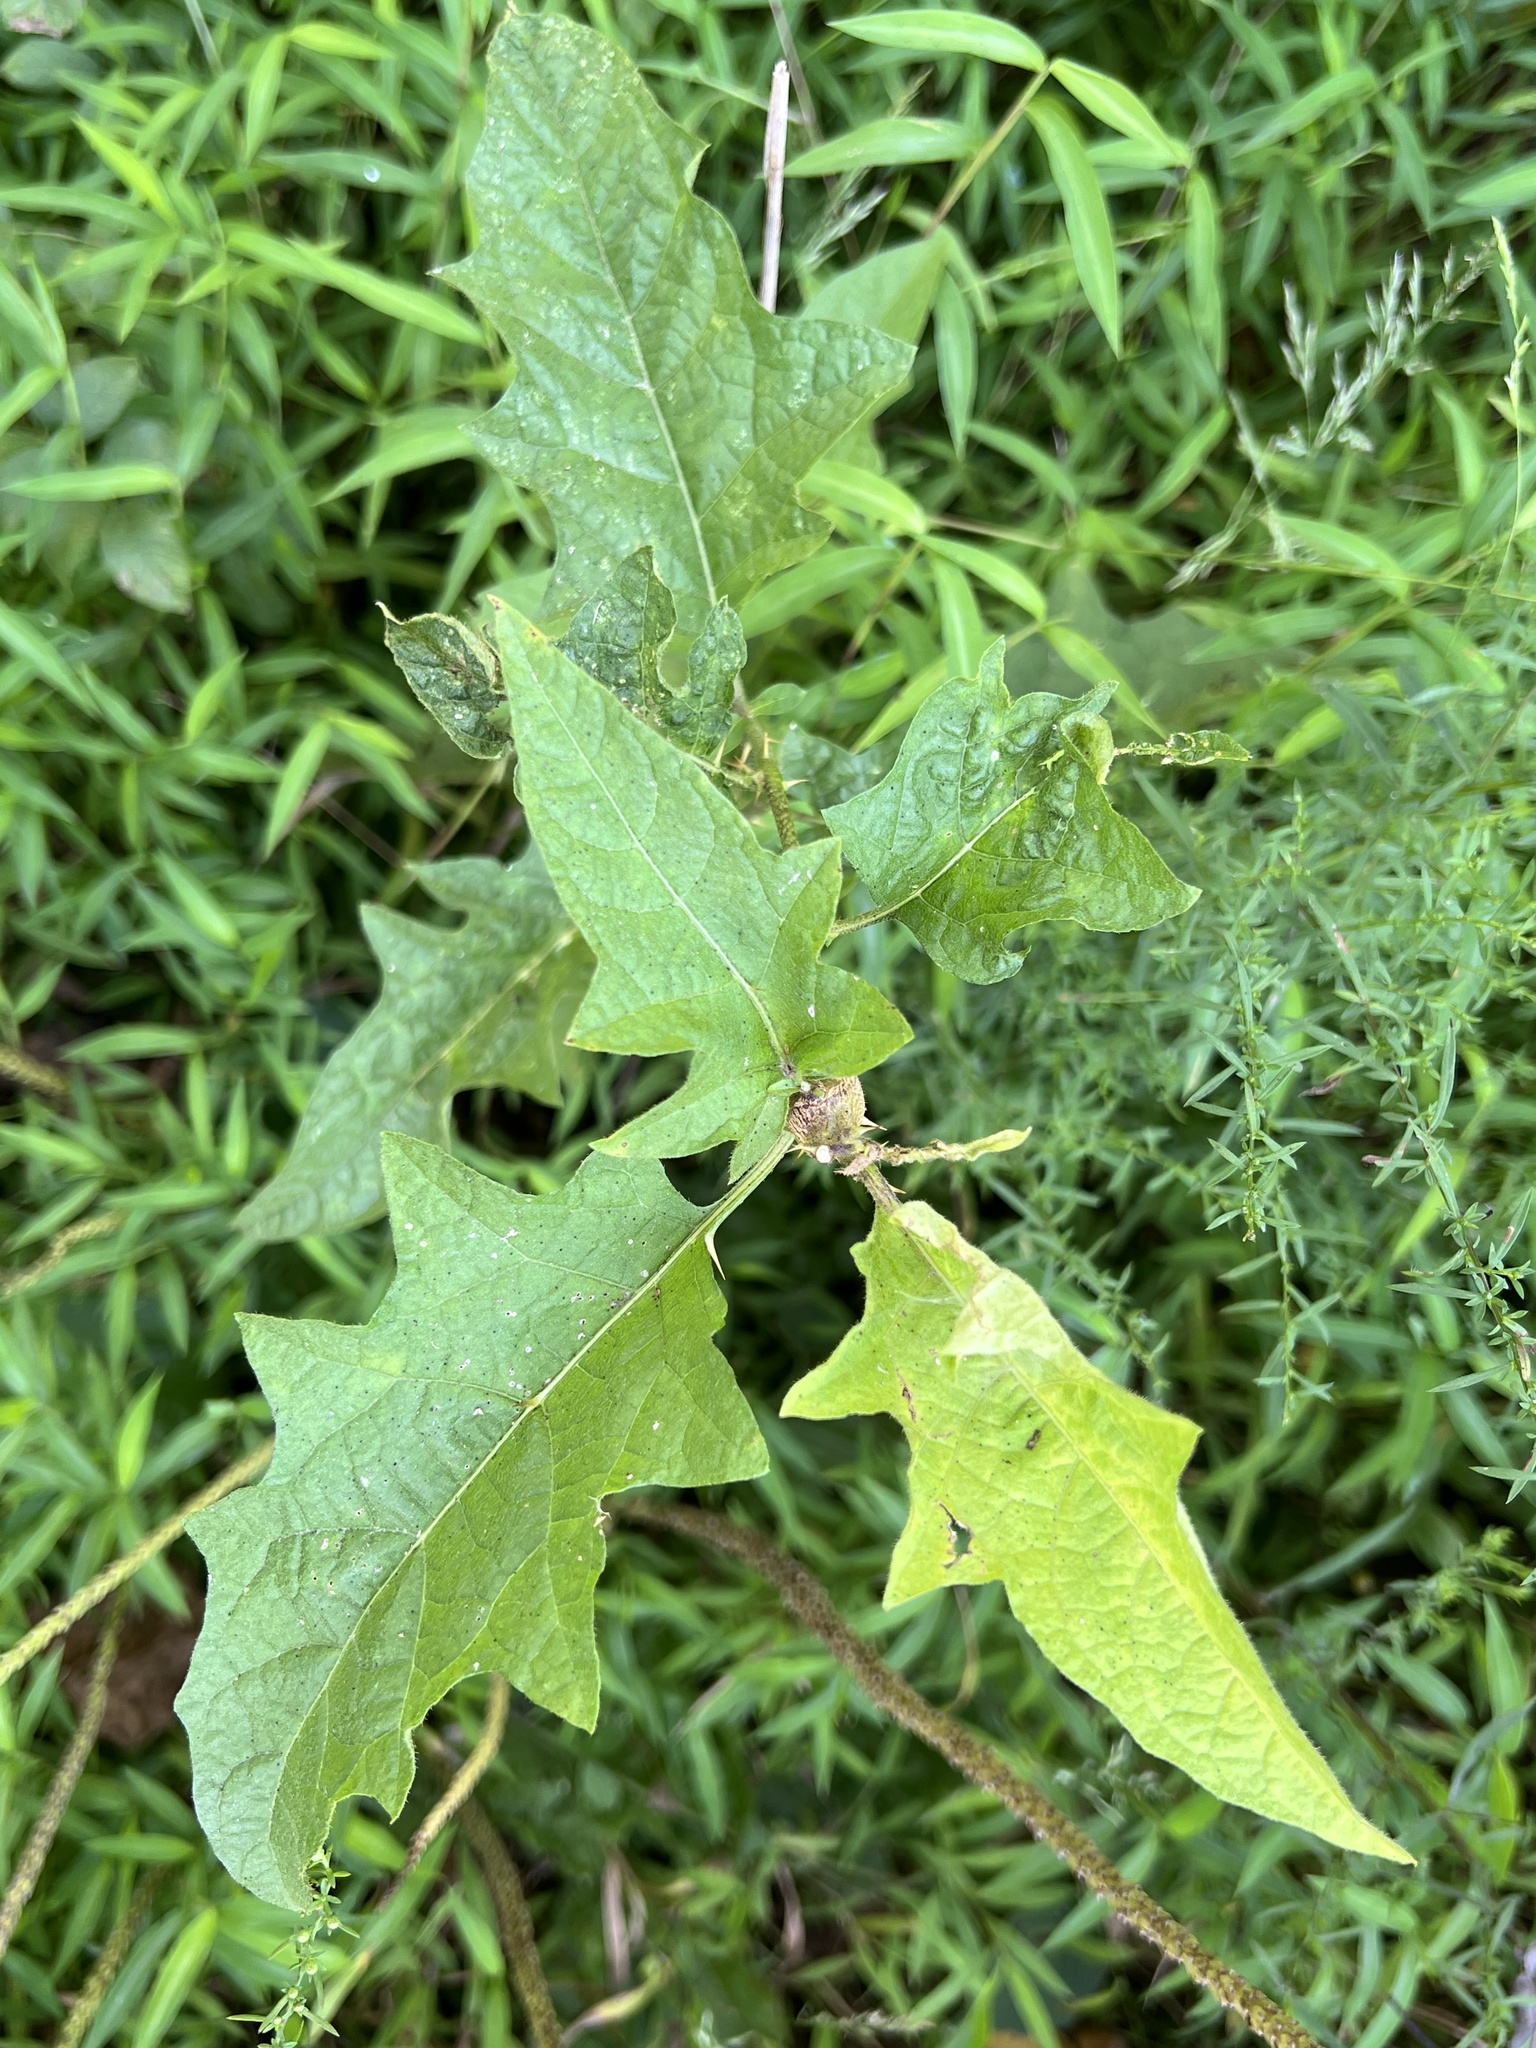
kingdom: Animalia
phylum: Arthropoda
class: Insecta
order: Diptera
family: Cecidomyiidae
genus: Lasioptera
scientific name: Lasioptera solani
